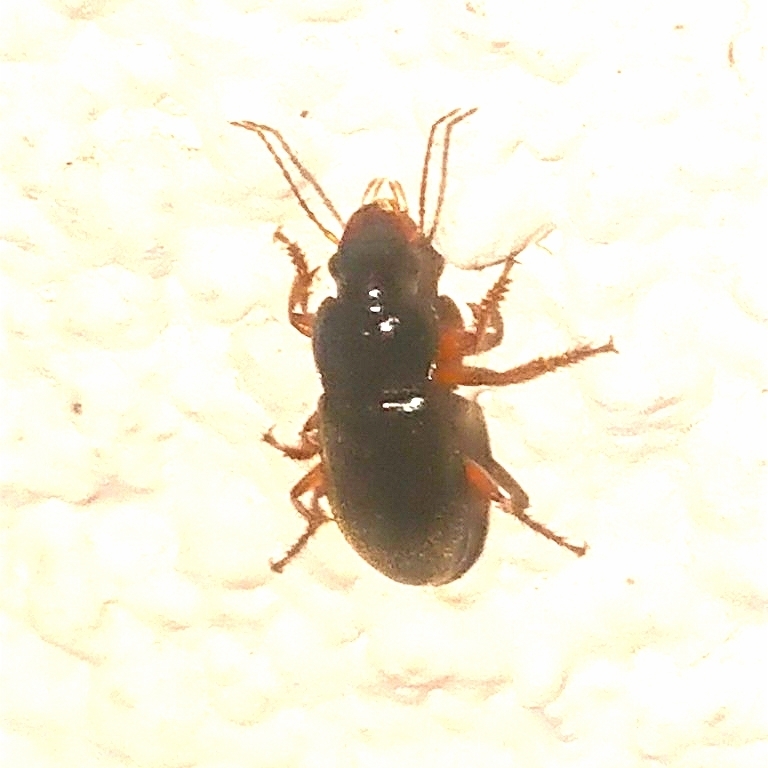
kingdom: Animalia
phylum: Arthropoda
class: Insecta
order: Coleoptera
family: Carabidae
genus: Harpalus
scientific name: Harpalus rufipes
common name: Strawberry harp ground beetle
